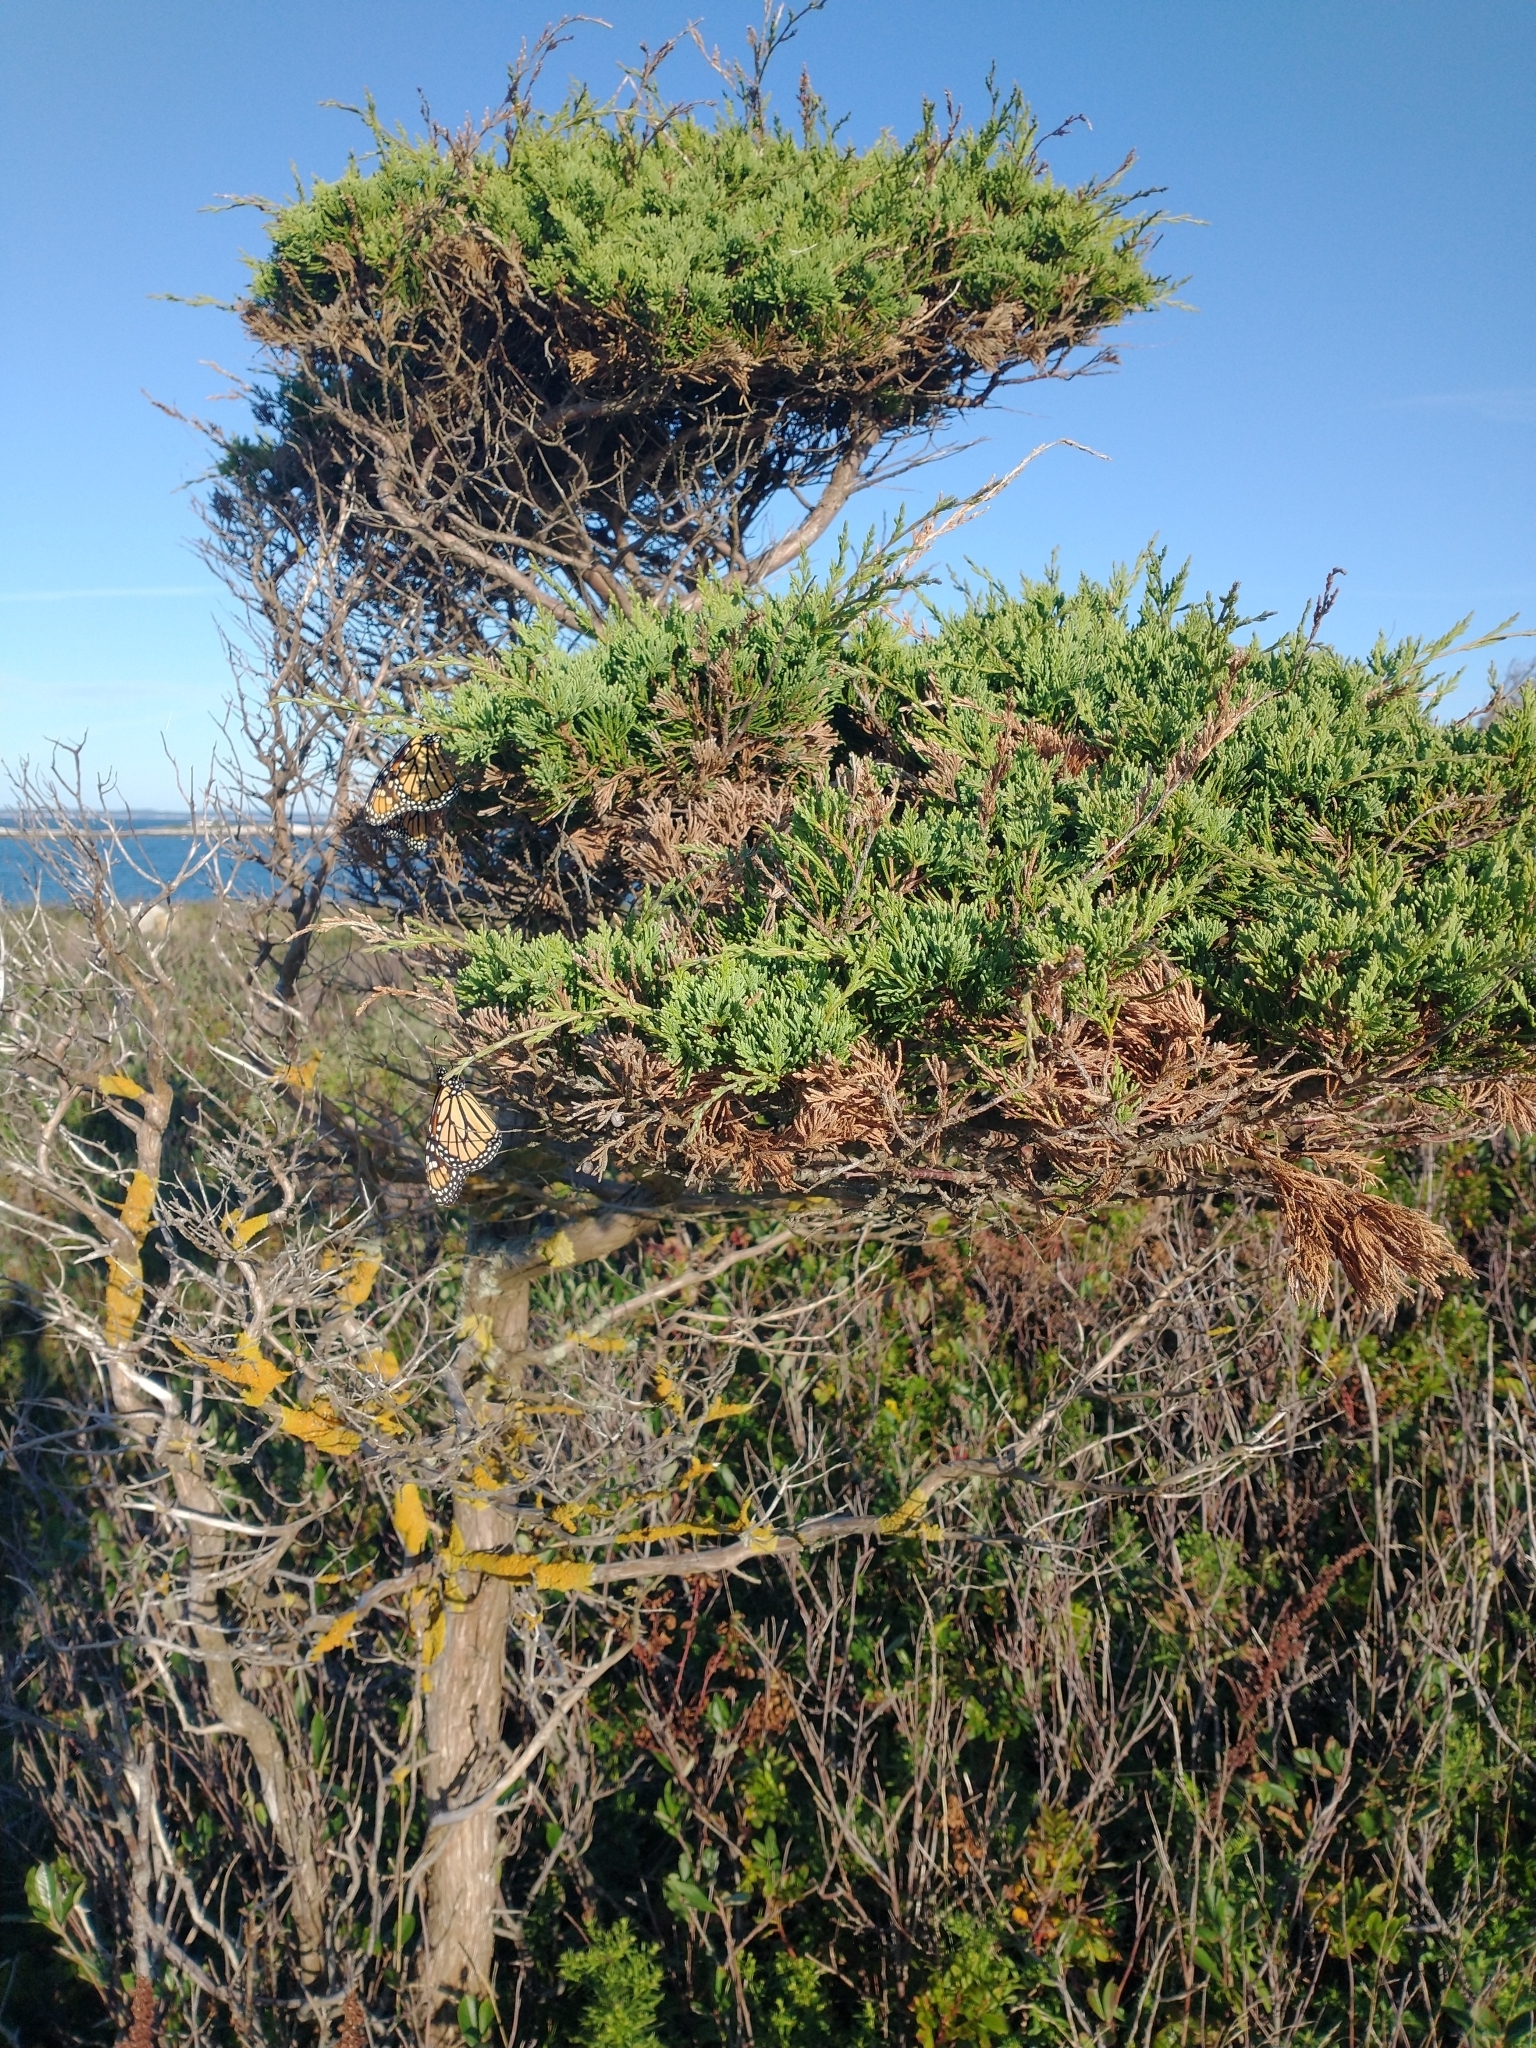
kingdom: Plantae
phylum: Tracheophyta
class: Pinopsida
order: Pinales
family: Cupressaceae
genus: Juniperus
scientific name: Juniperus virginiana
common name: Red juniper
